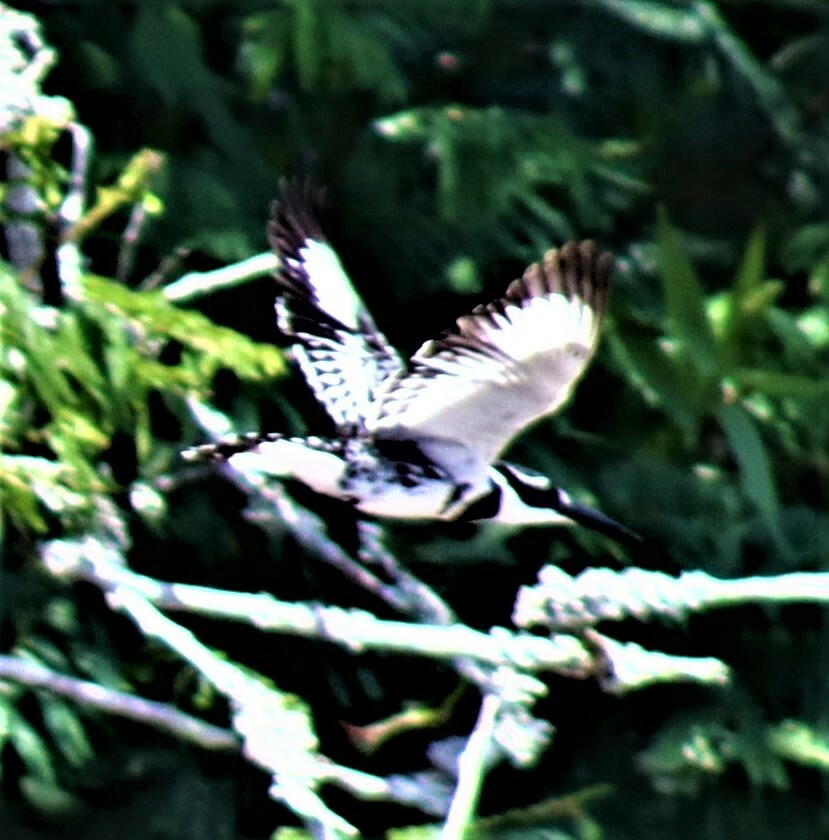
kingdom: Animalia
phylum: Chordata
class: Aves
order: Coraciiformes
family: Alcedinidae
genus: Ceryle
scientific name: Ceryle rudis
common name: Pied kingfisher
